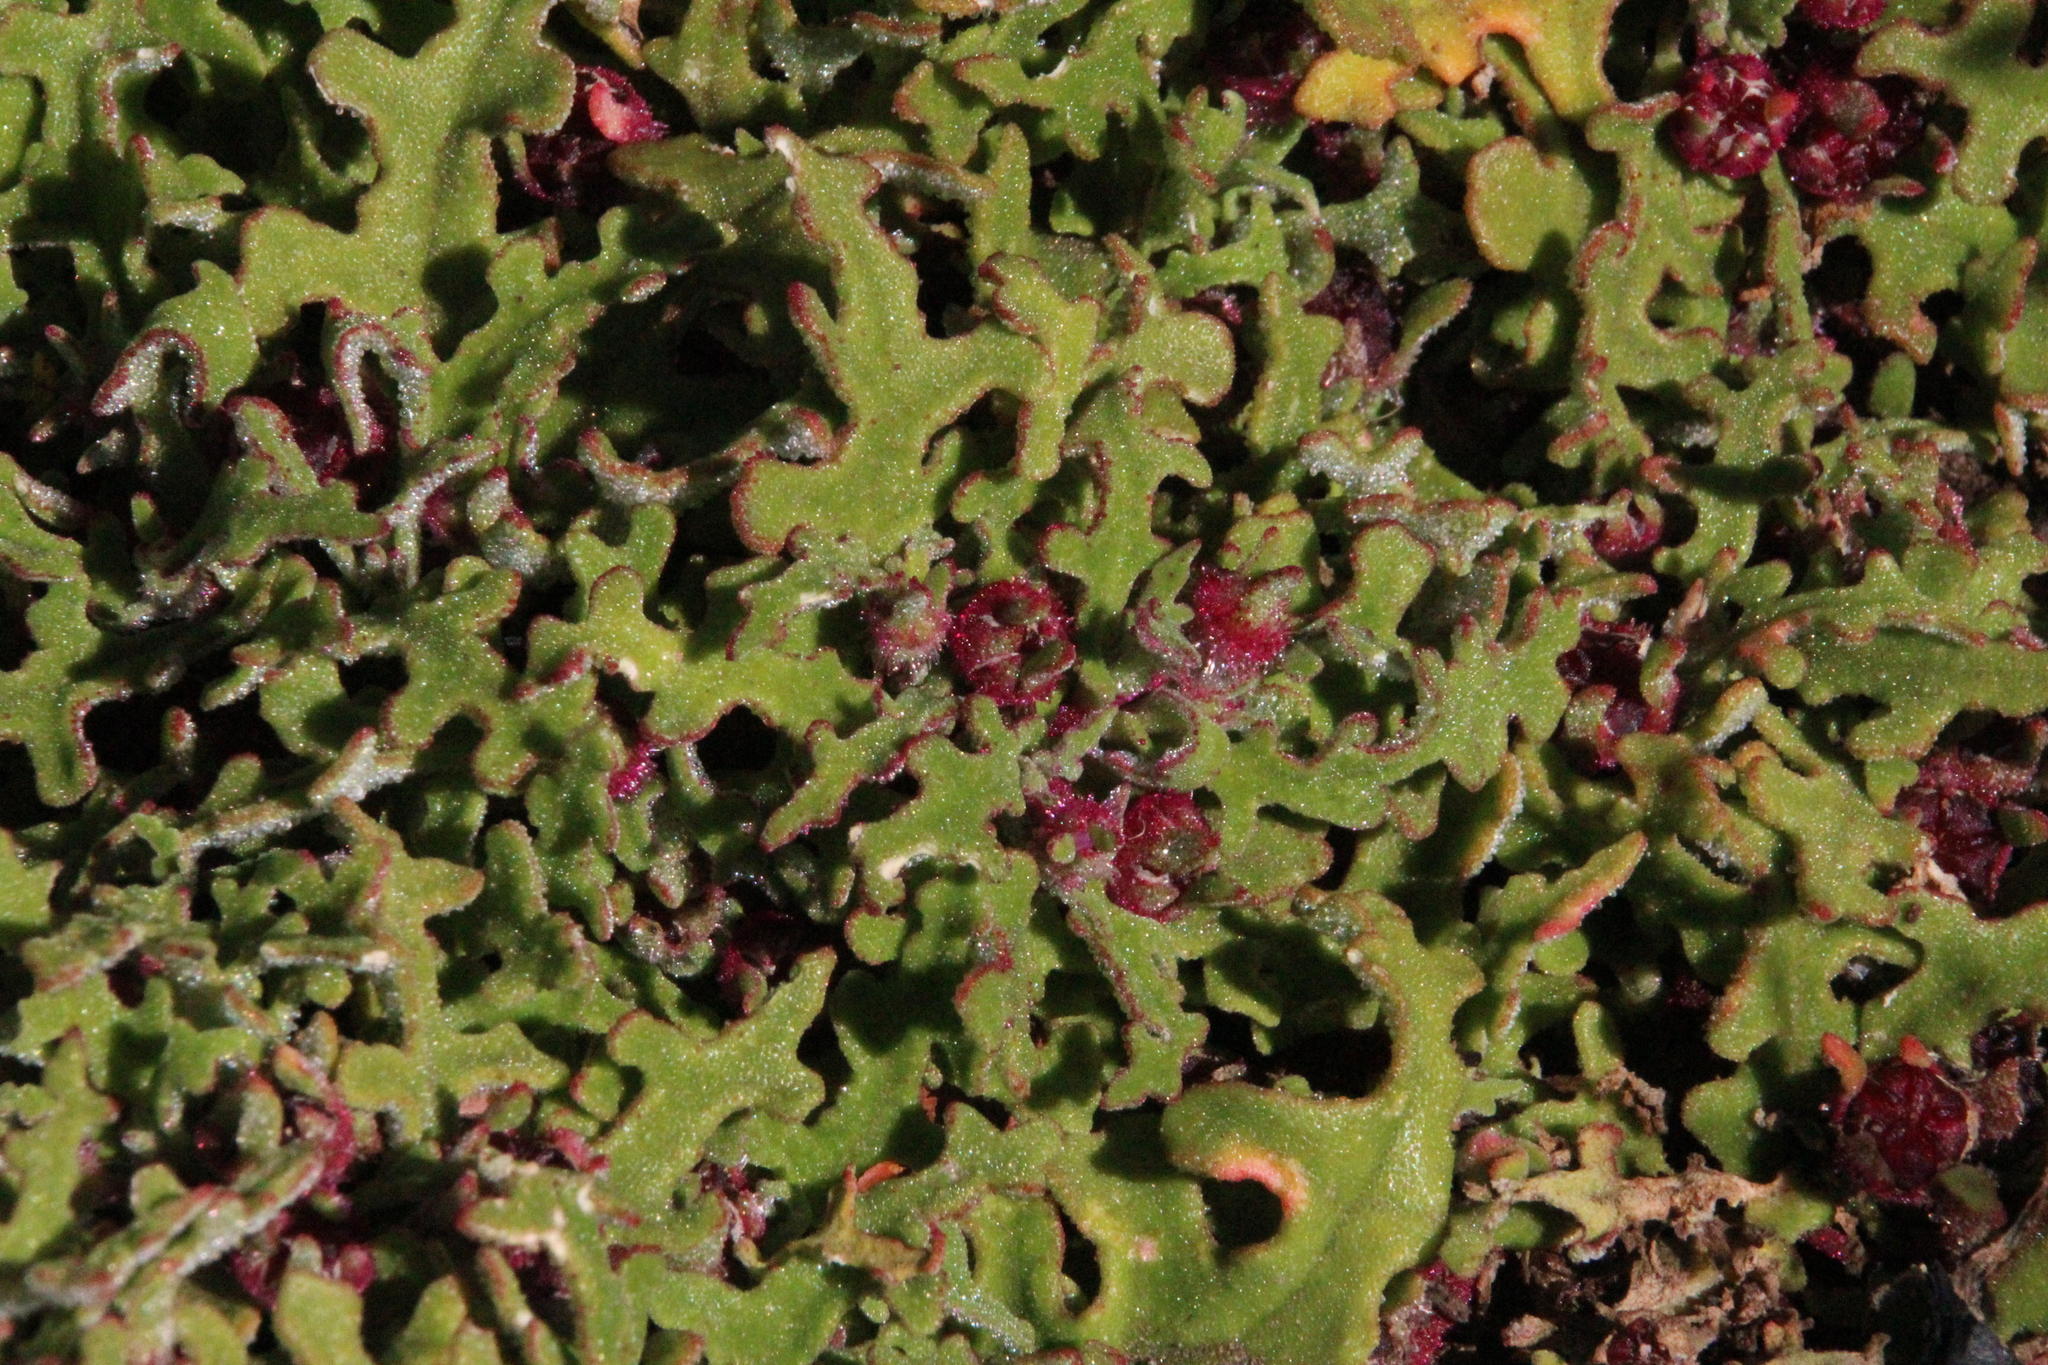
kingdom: Plantae
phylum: Tracheophyta
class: Magnoliopsida
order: Caryophyllales
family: Aizoaceae
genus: Cleretum
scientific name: Cleretum herrei
